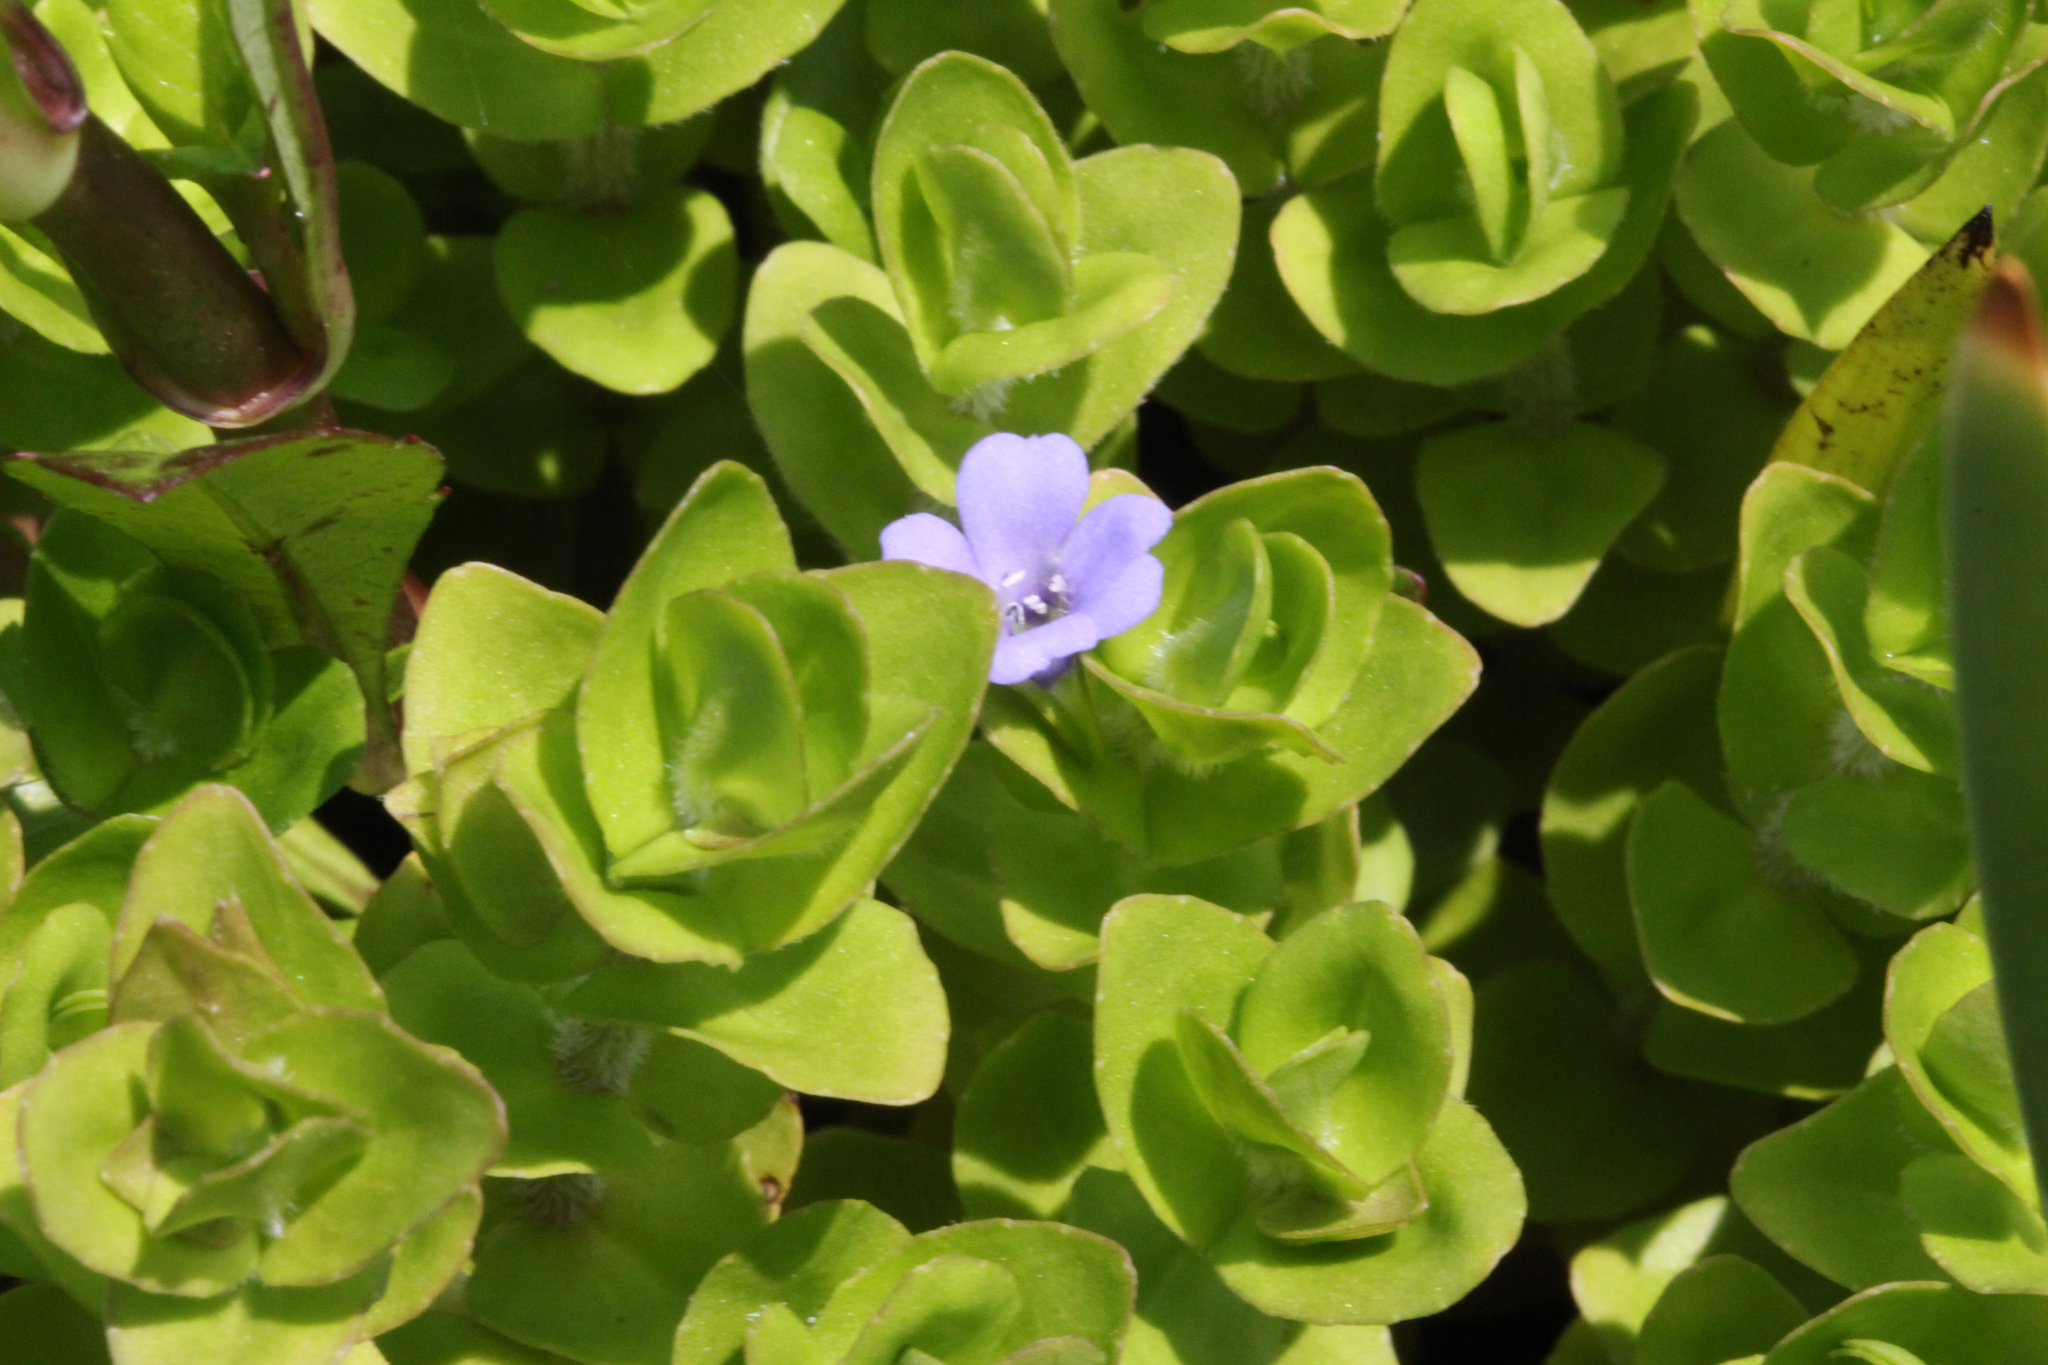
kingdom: Plantae
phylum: Tracheophyta
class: Magnoliopsida
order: Lamiales
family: Plantaginaceae
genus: Bacopa
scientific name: Bacopa caroliniana
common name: Lemon bacopa
